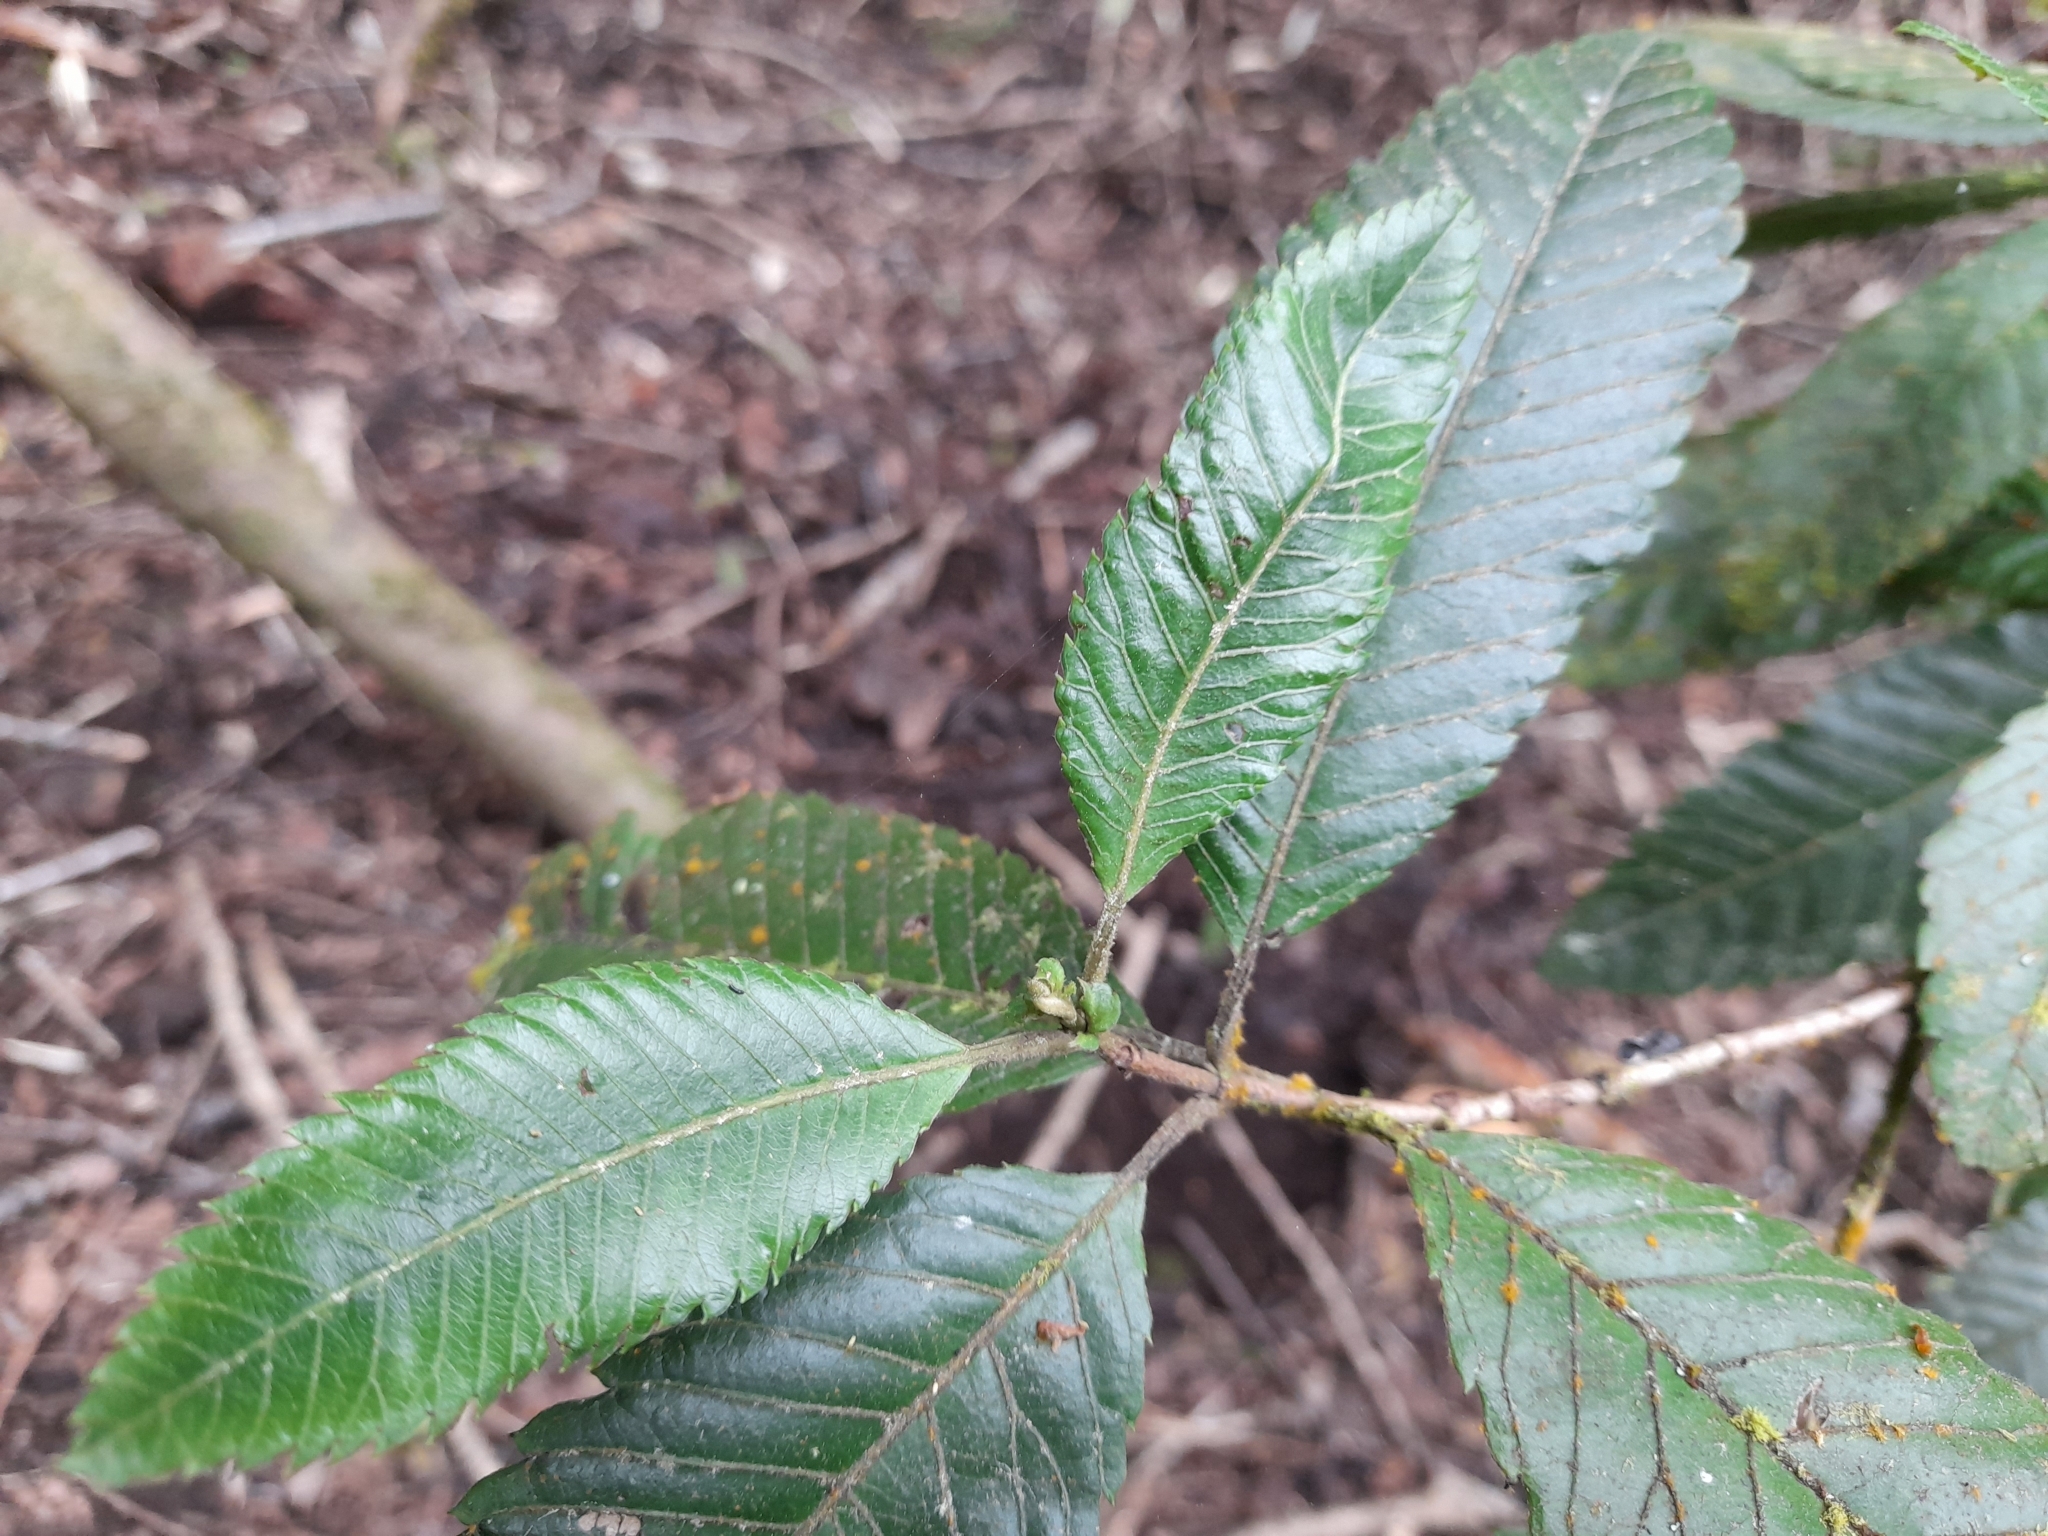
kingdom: Plantae
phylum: Tracheophyta
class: Magnoliopsida
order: Oxalidales
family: Cunoniaceae
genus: Caldcluvia
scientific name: Caldcluvia paniculata
